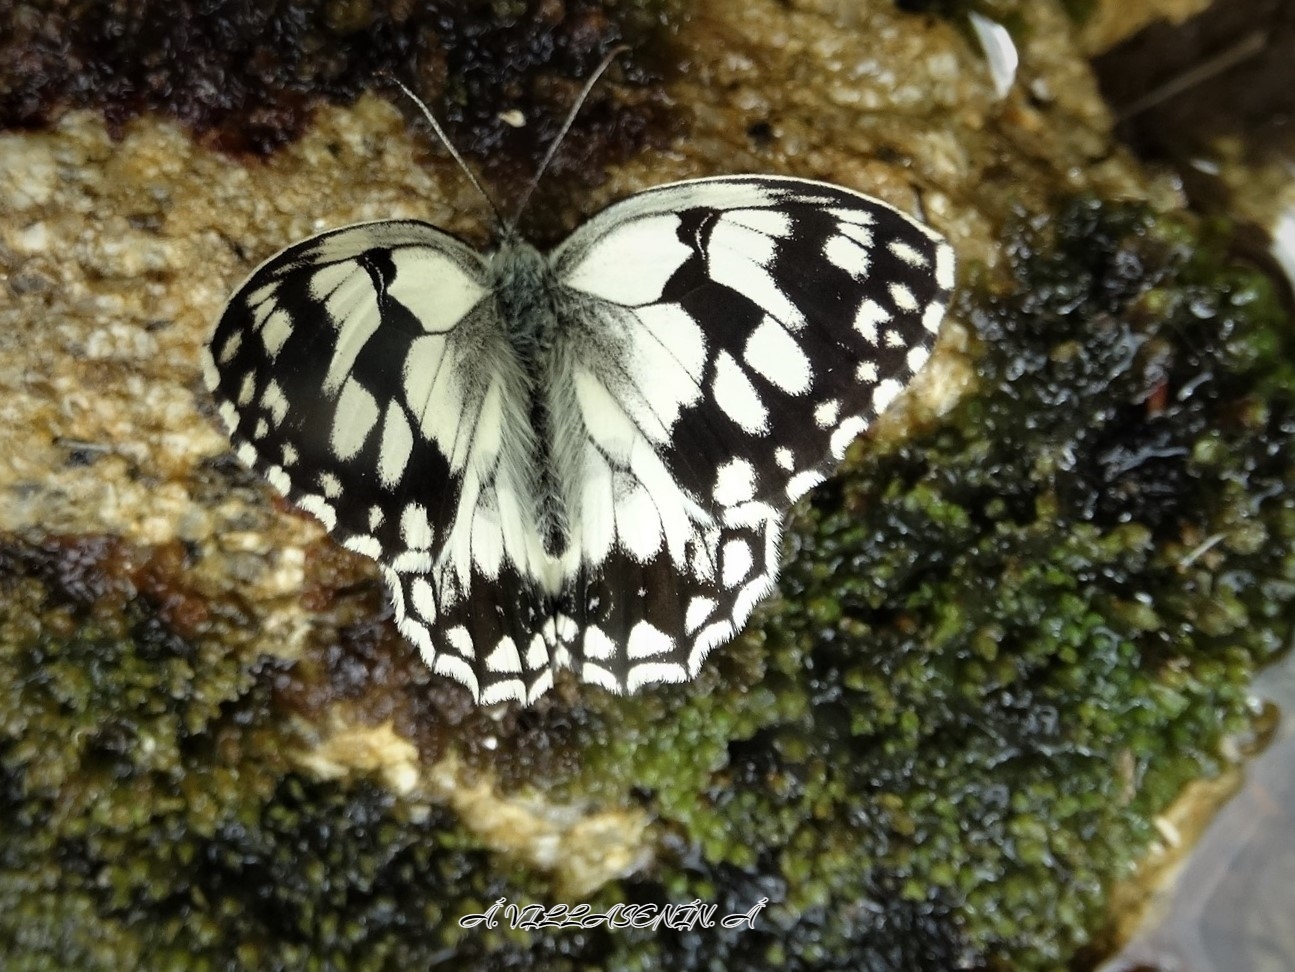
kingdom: Animalia
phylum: Arthropoda
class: Insecta
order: Lepidoptera
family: Nymphalidae
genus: Melanargia
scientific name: Melanargia lachesis
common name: Iberian marbled white
